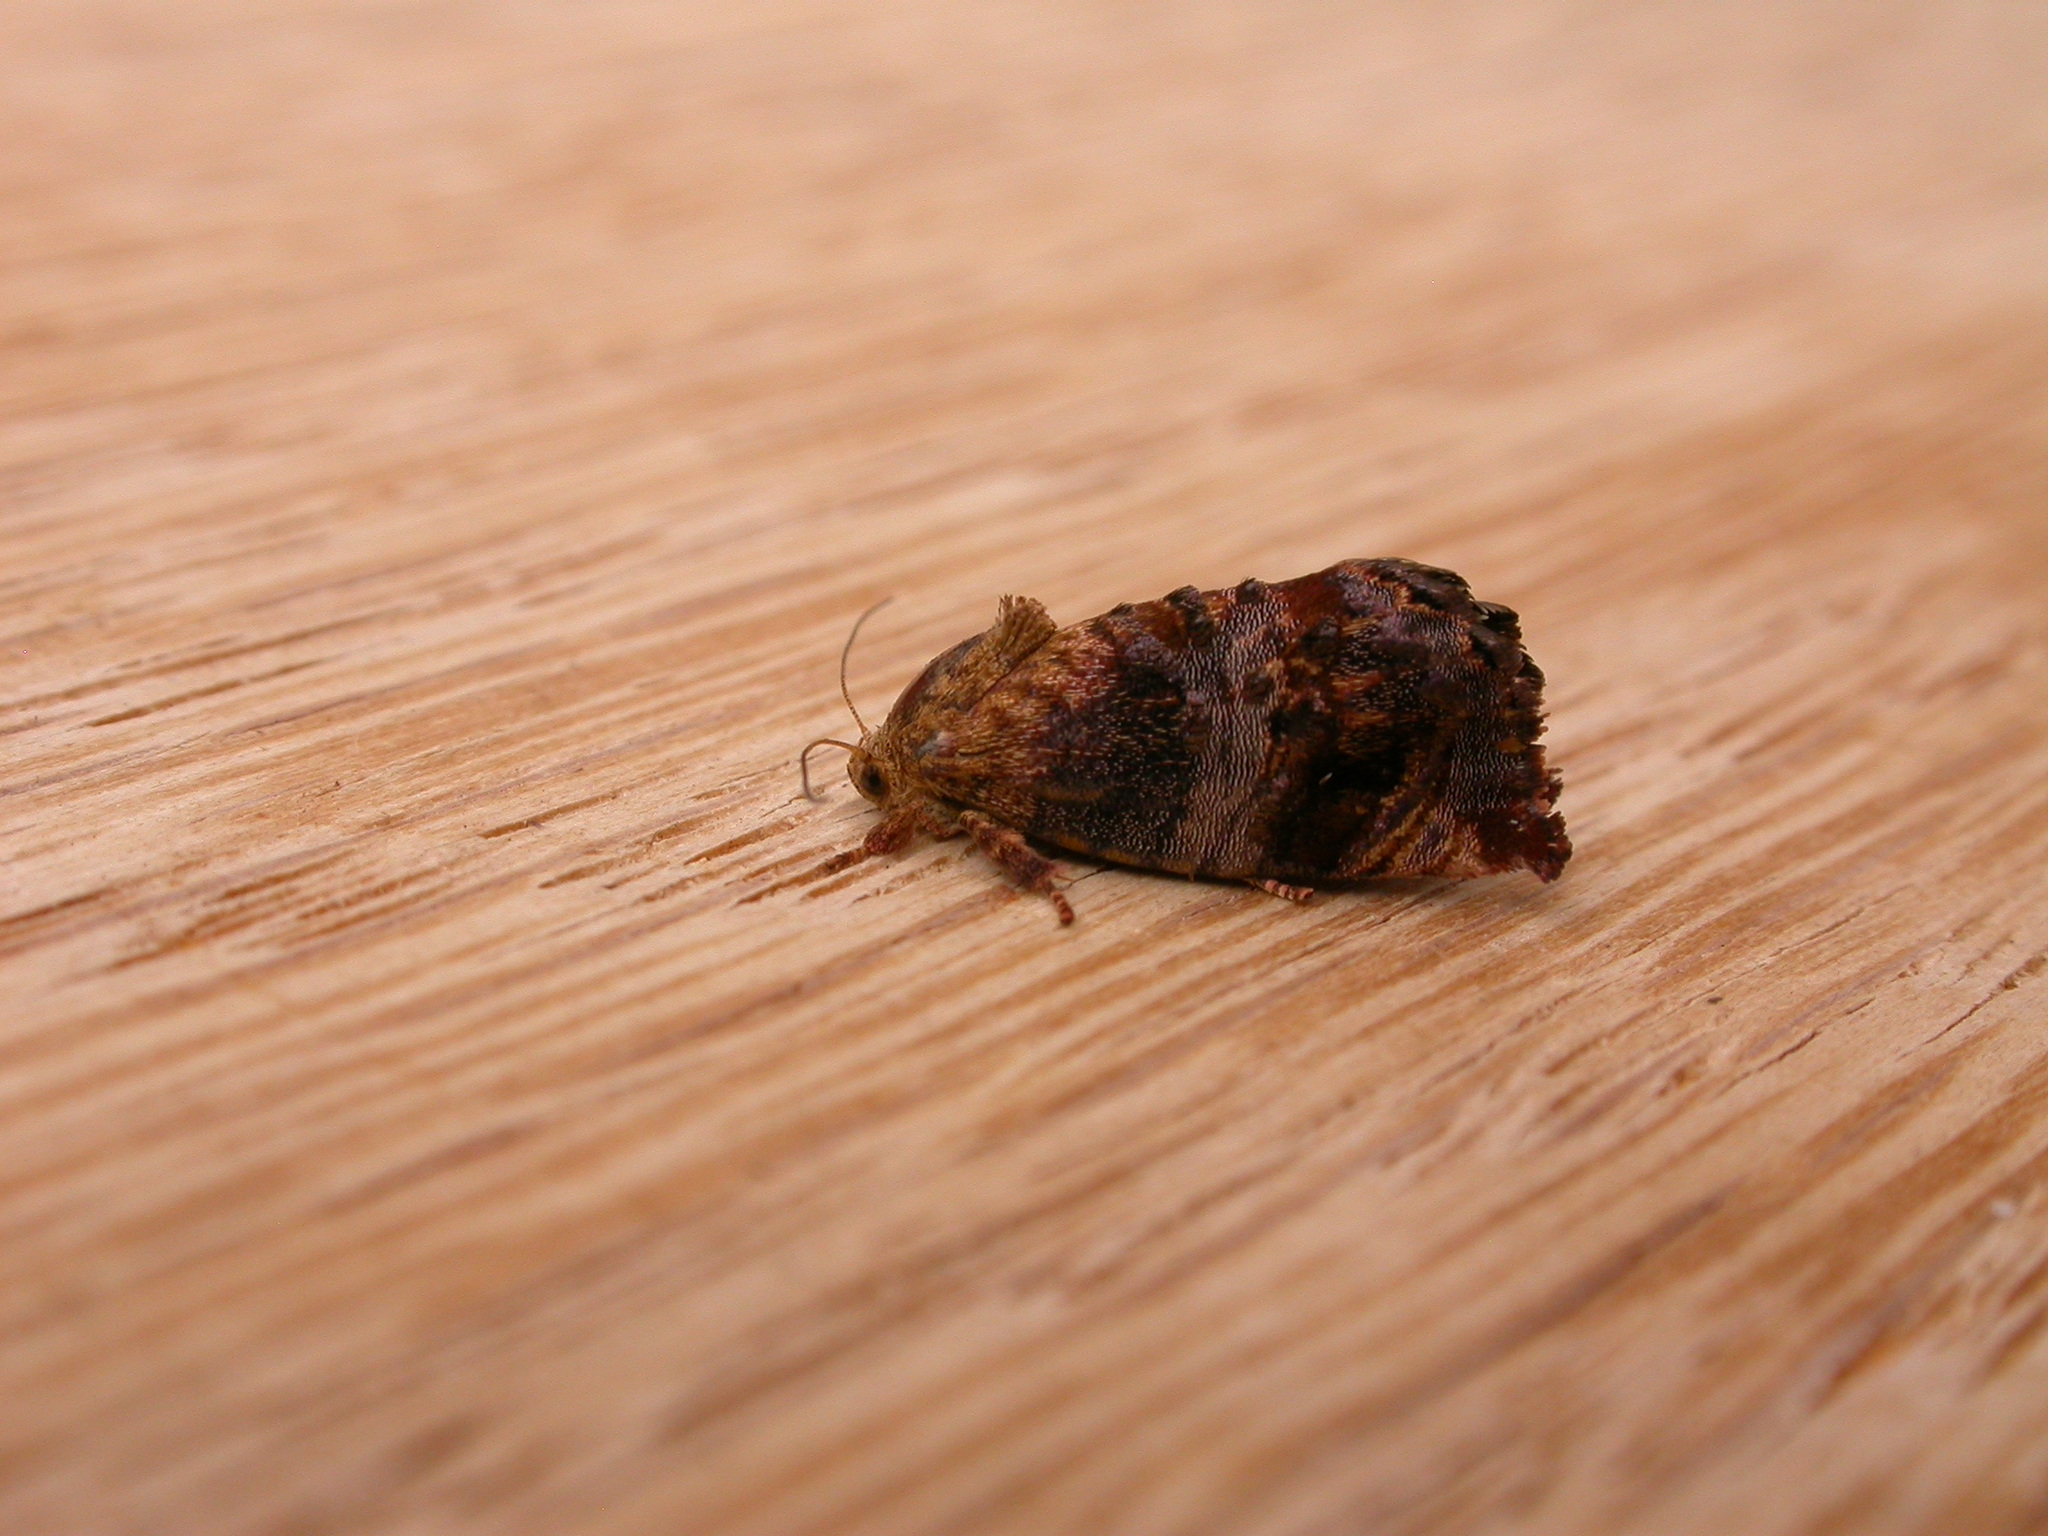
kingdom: Animalia
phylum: Arthropoda
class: Insecta
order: Lepidoptera
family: Depressariidae
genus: Peritropha
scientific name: Peritropha oligodrachma
